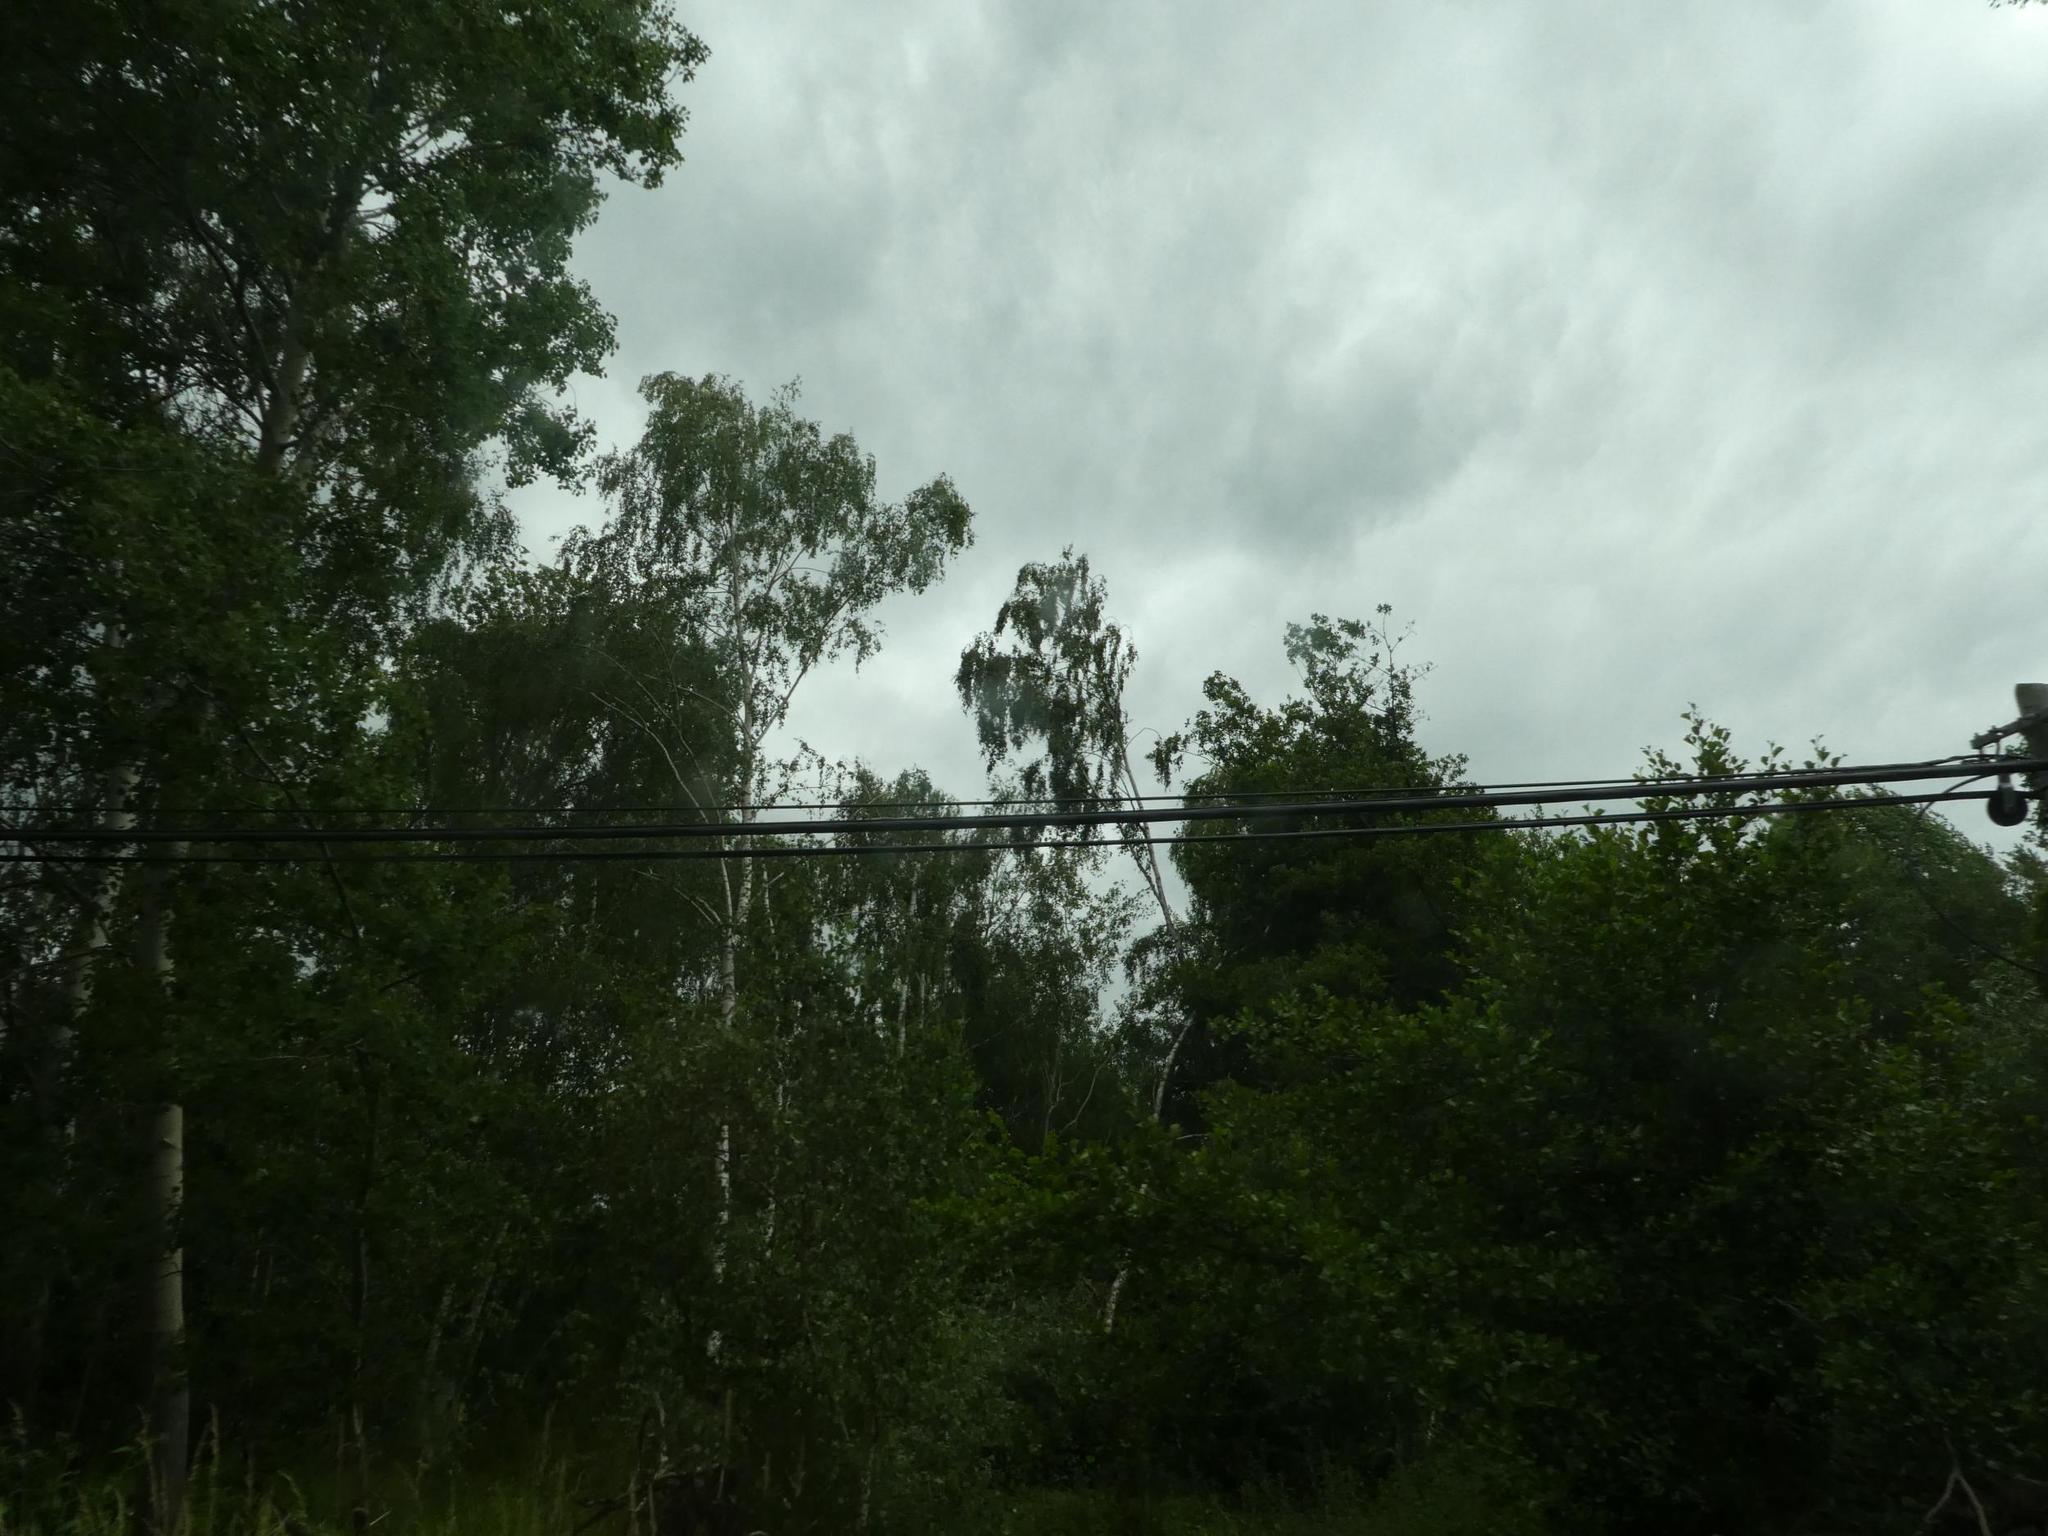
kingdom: Plantae
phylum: Tracheophyta
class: Magnoliopsida
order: Fagales
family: Betulaceae
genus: Betula
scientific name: Betula pendula
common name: Silver birch
